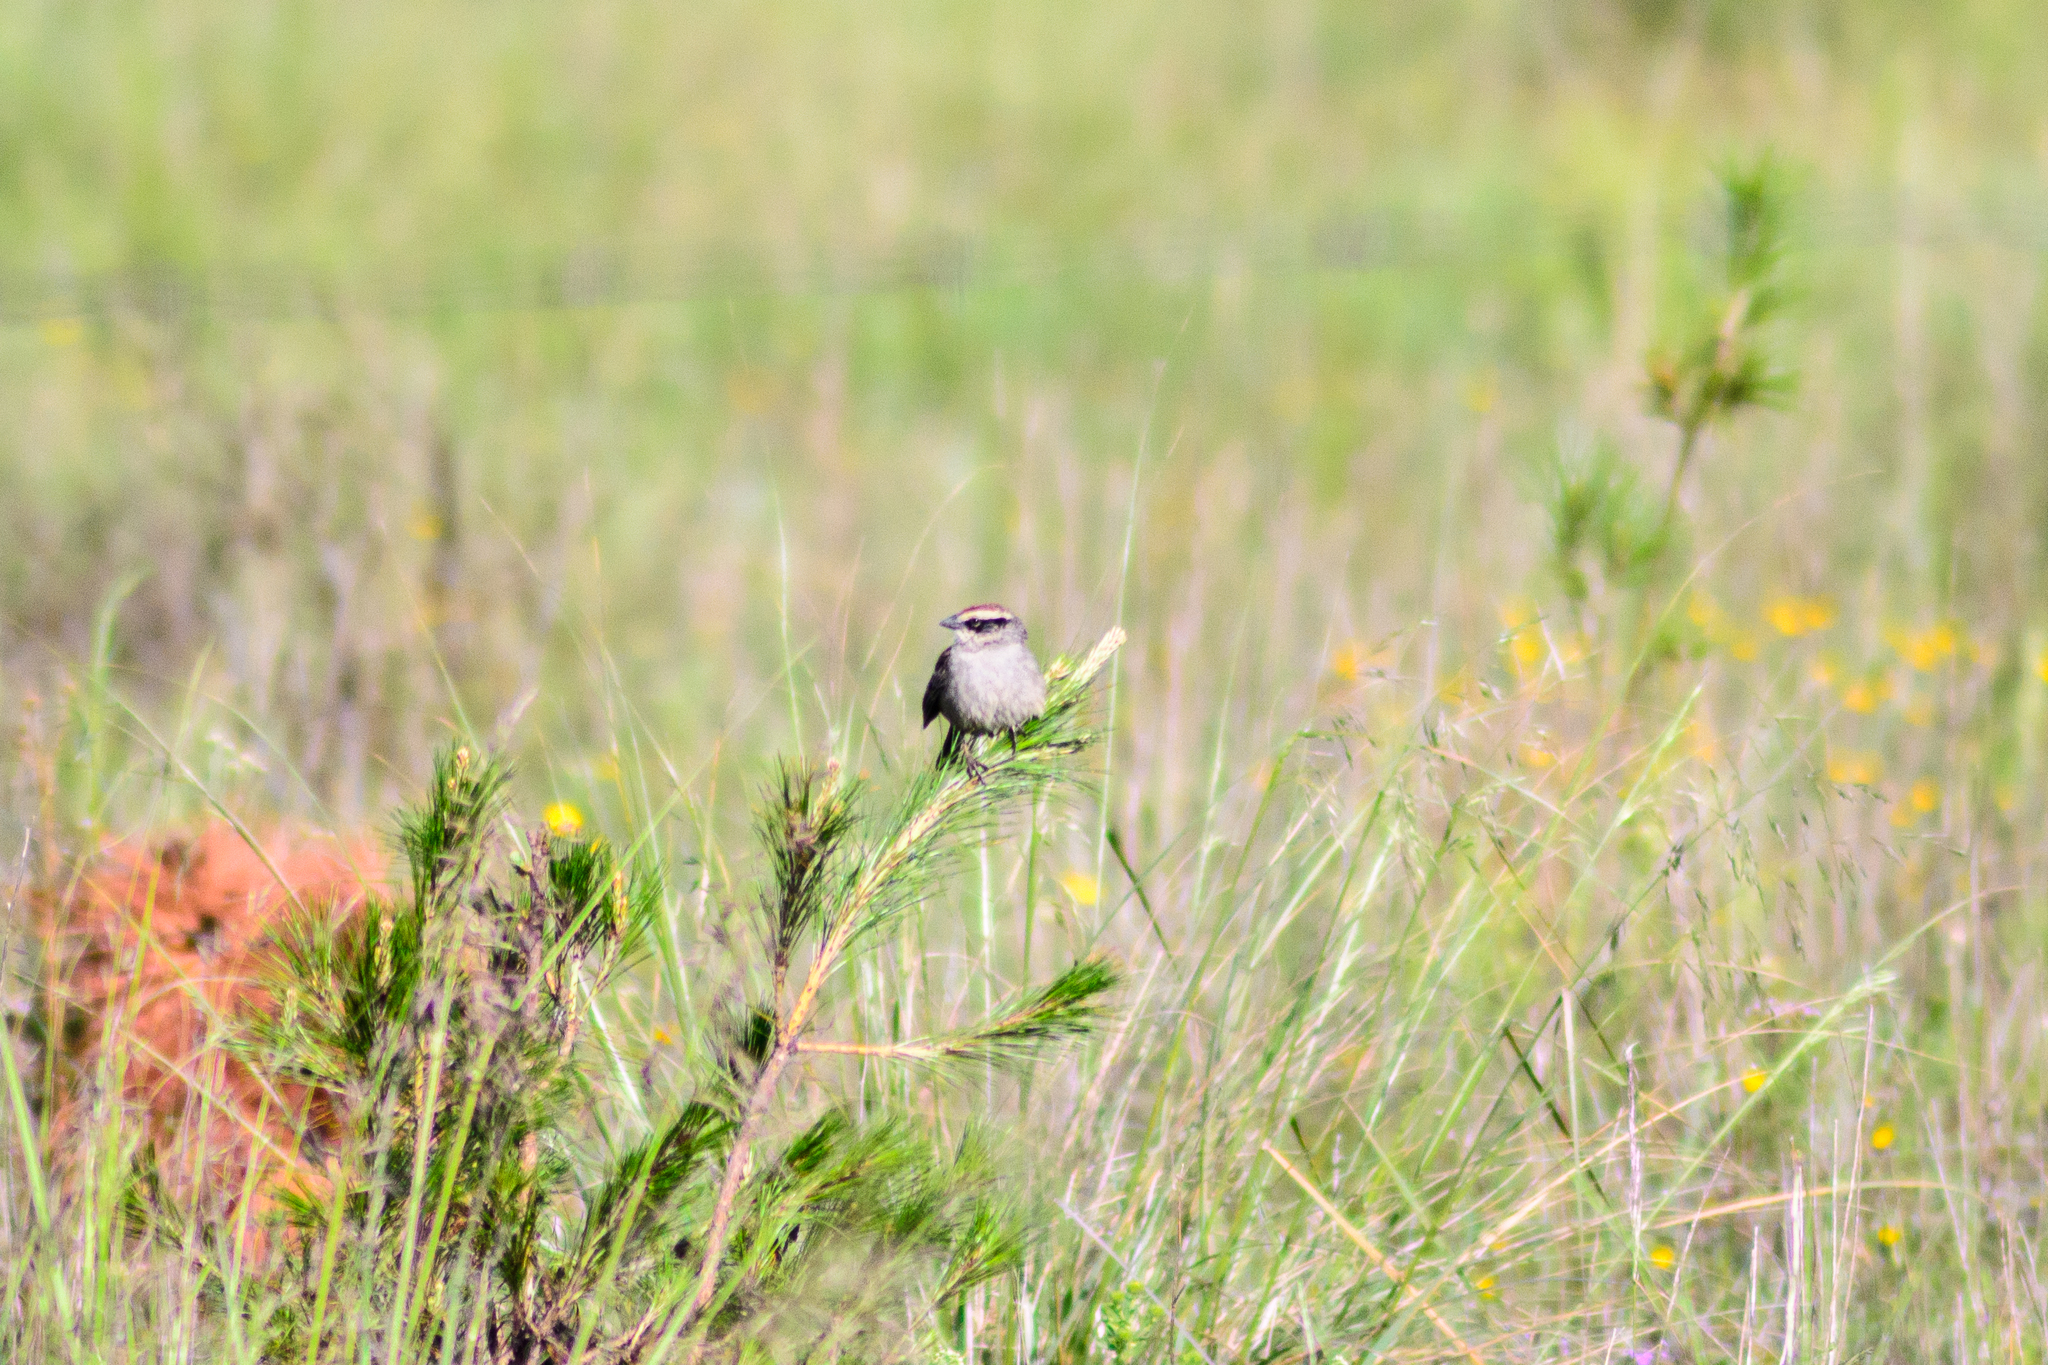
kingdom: Animalia
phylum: Chordata
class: Aves
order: Passeriformes
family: Passerellidae
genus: Oriturus
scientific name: Oriturus superciliosus
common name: Striped sparrow
